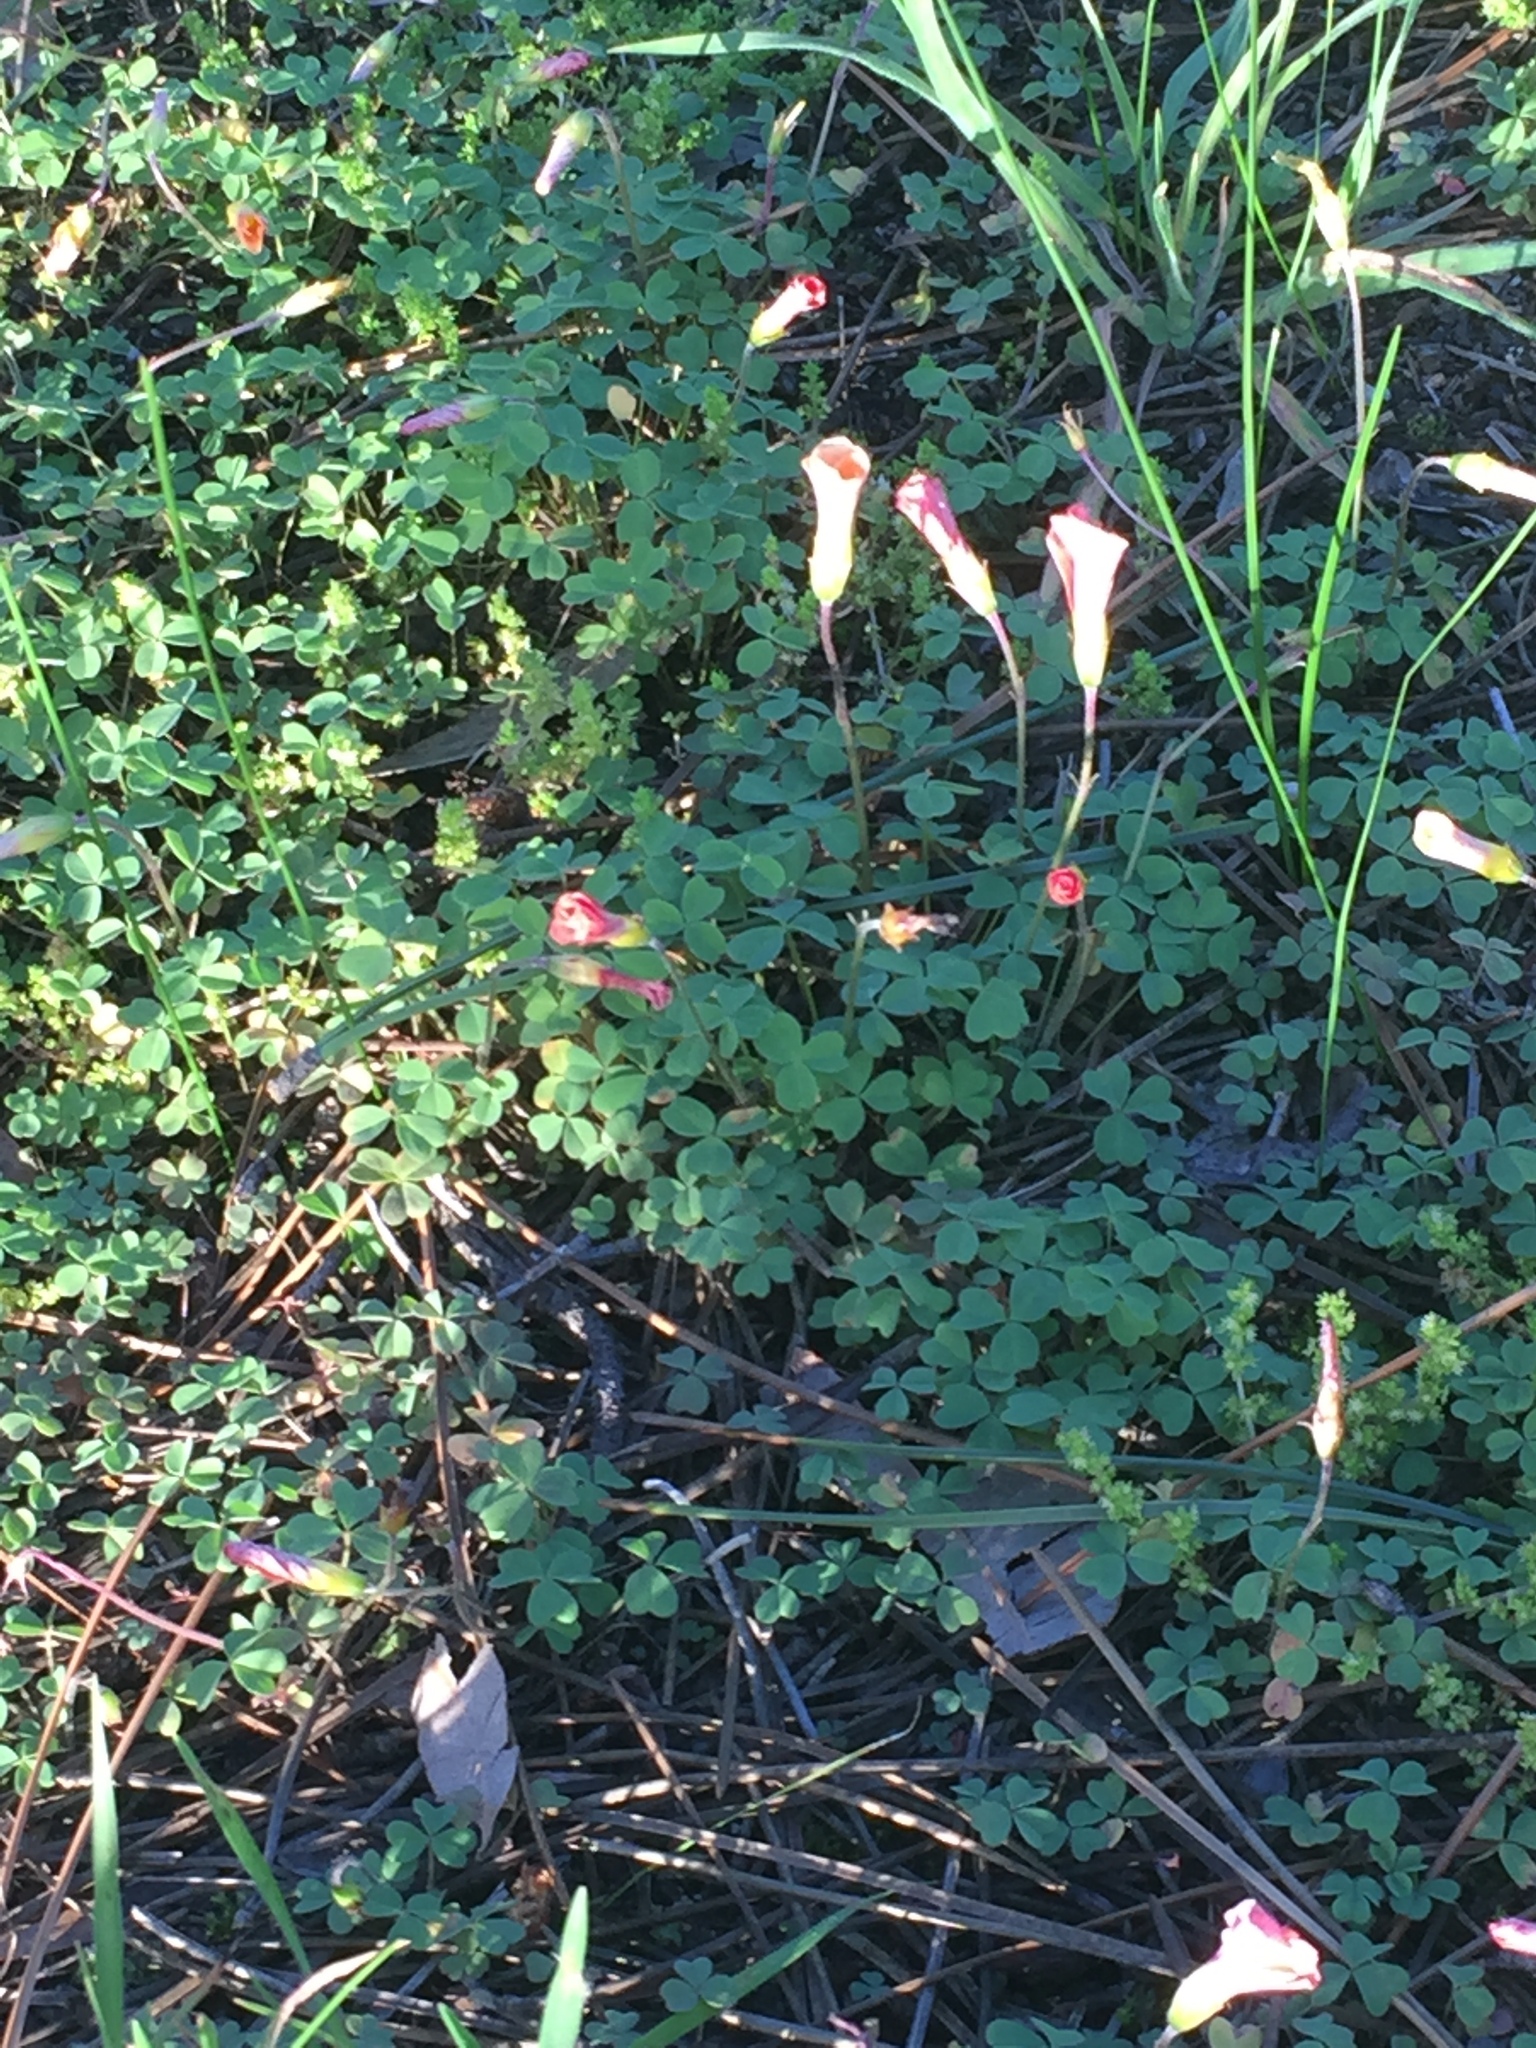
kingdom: Plantae
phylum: Tracheophyta
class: Magnoliopsida
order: Oxalidales
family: Oxalidaceae
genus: Oxalis
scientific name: Oxalis obtusa
